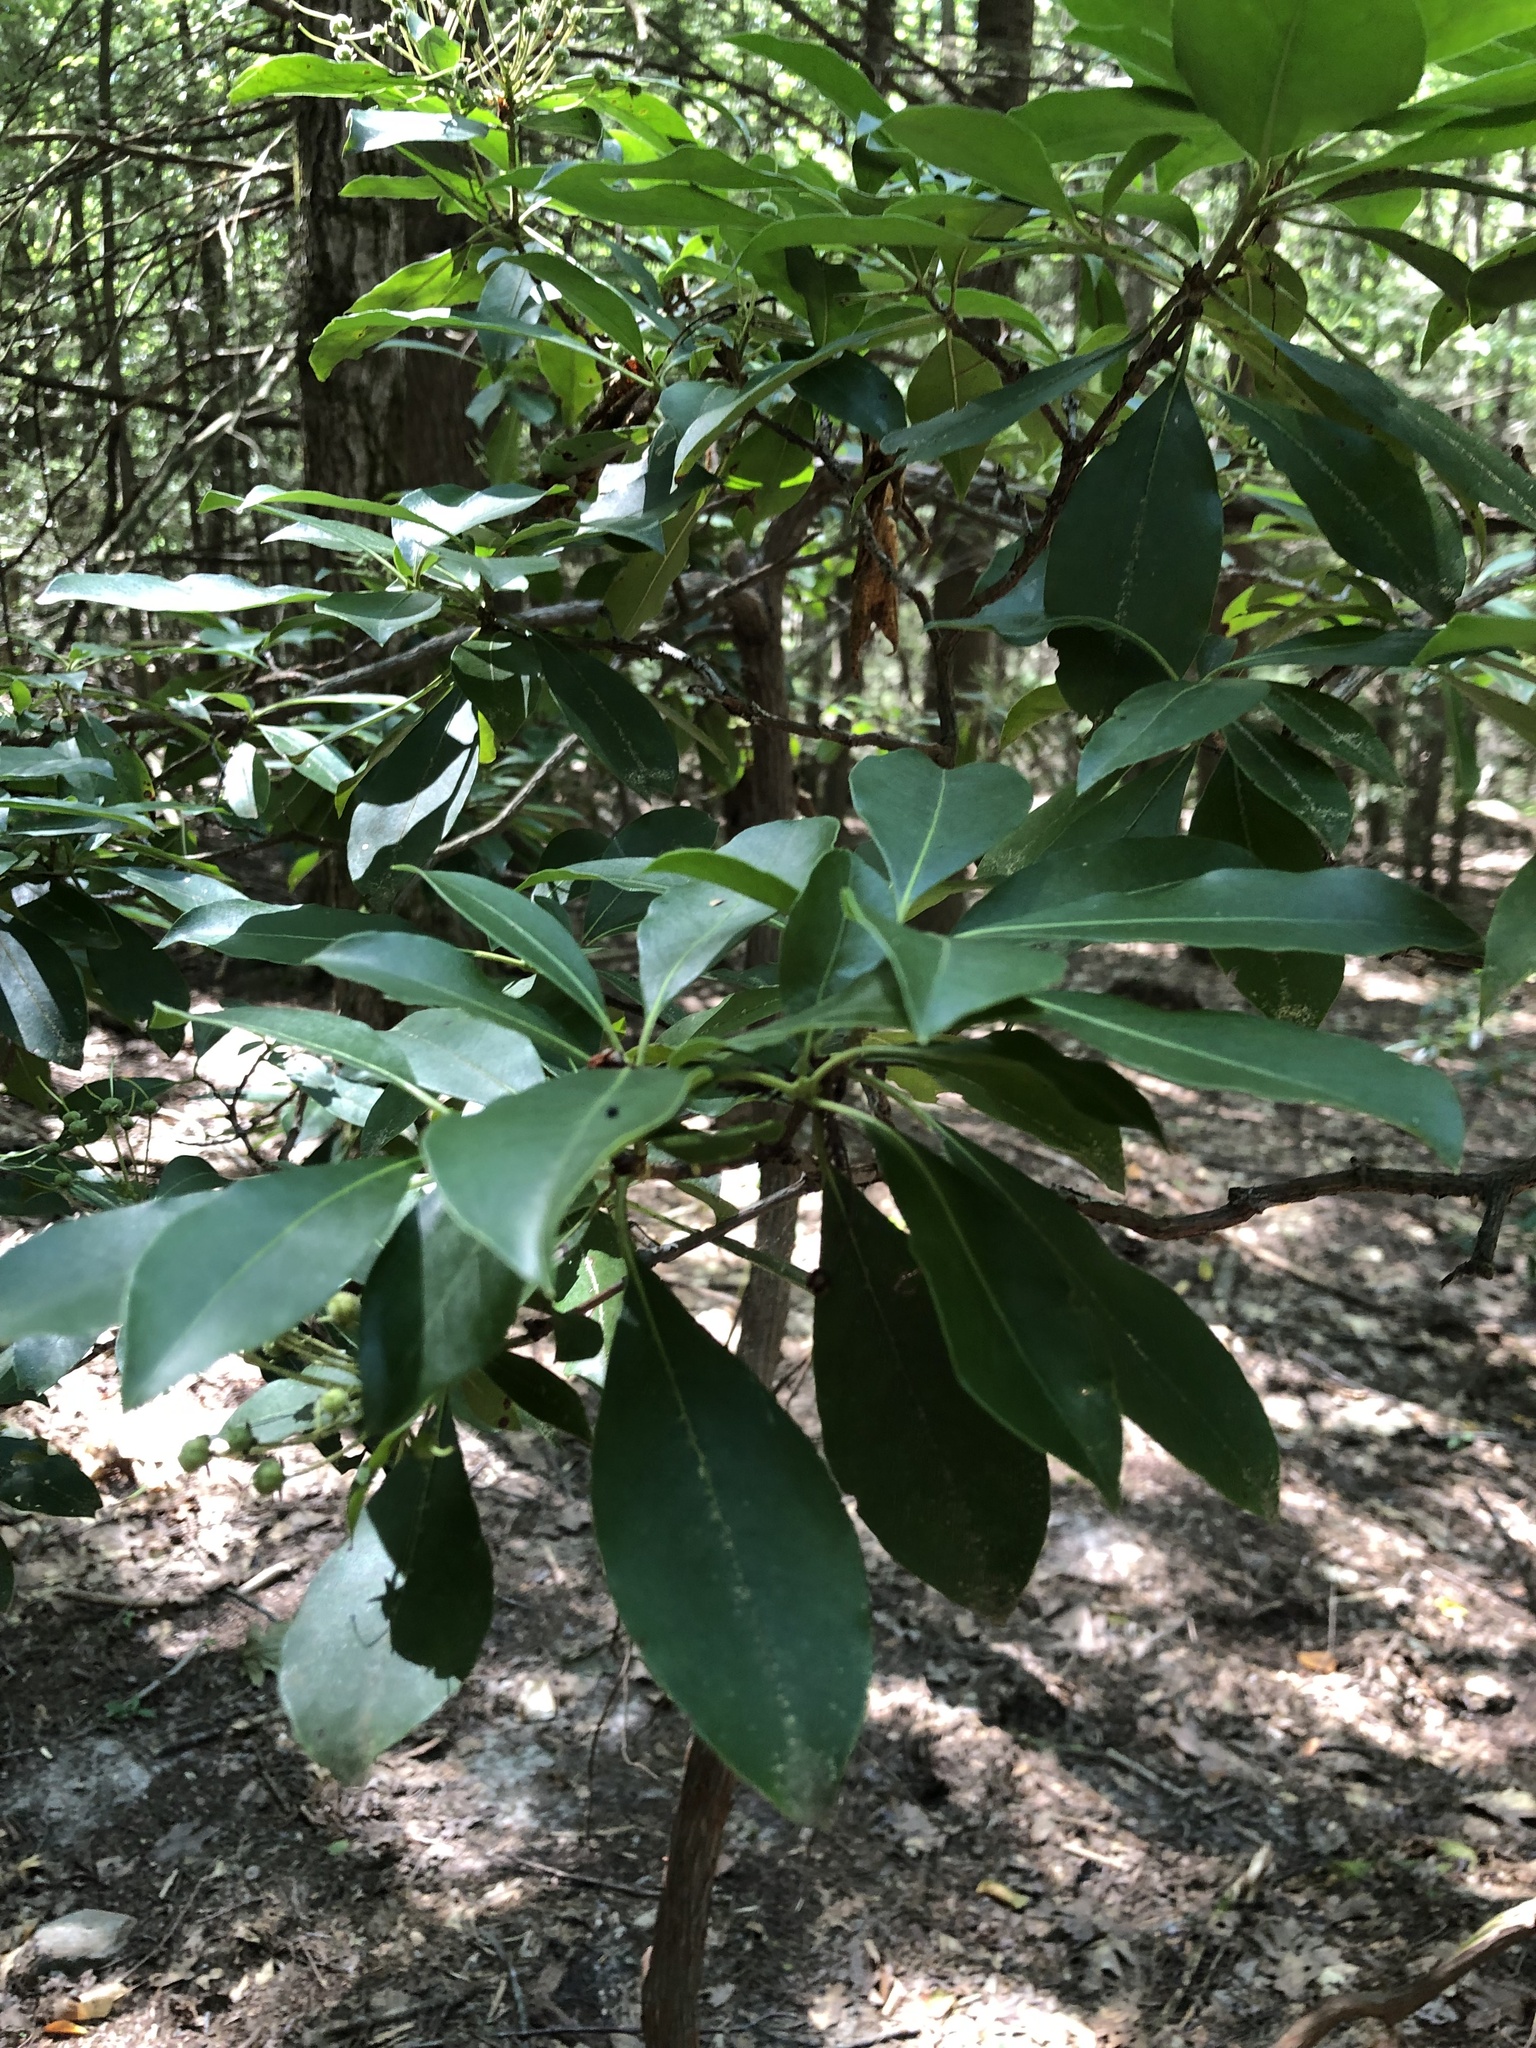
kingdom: Plantae
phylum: Tracheophyta
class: Magnoliopsida
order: Ericales
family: Ericaceae
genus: Kalmia
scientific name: Kalmia latifolia
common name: Mountain-laurel
